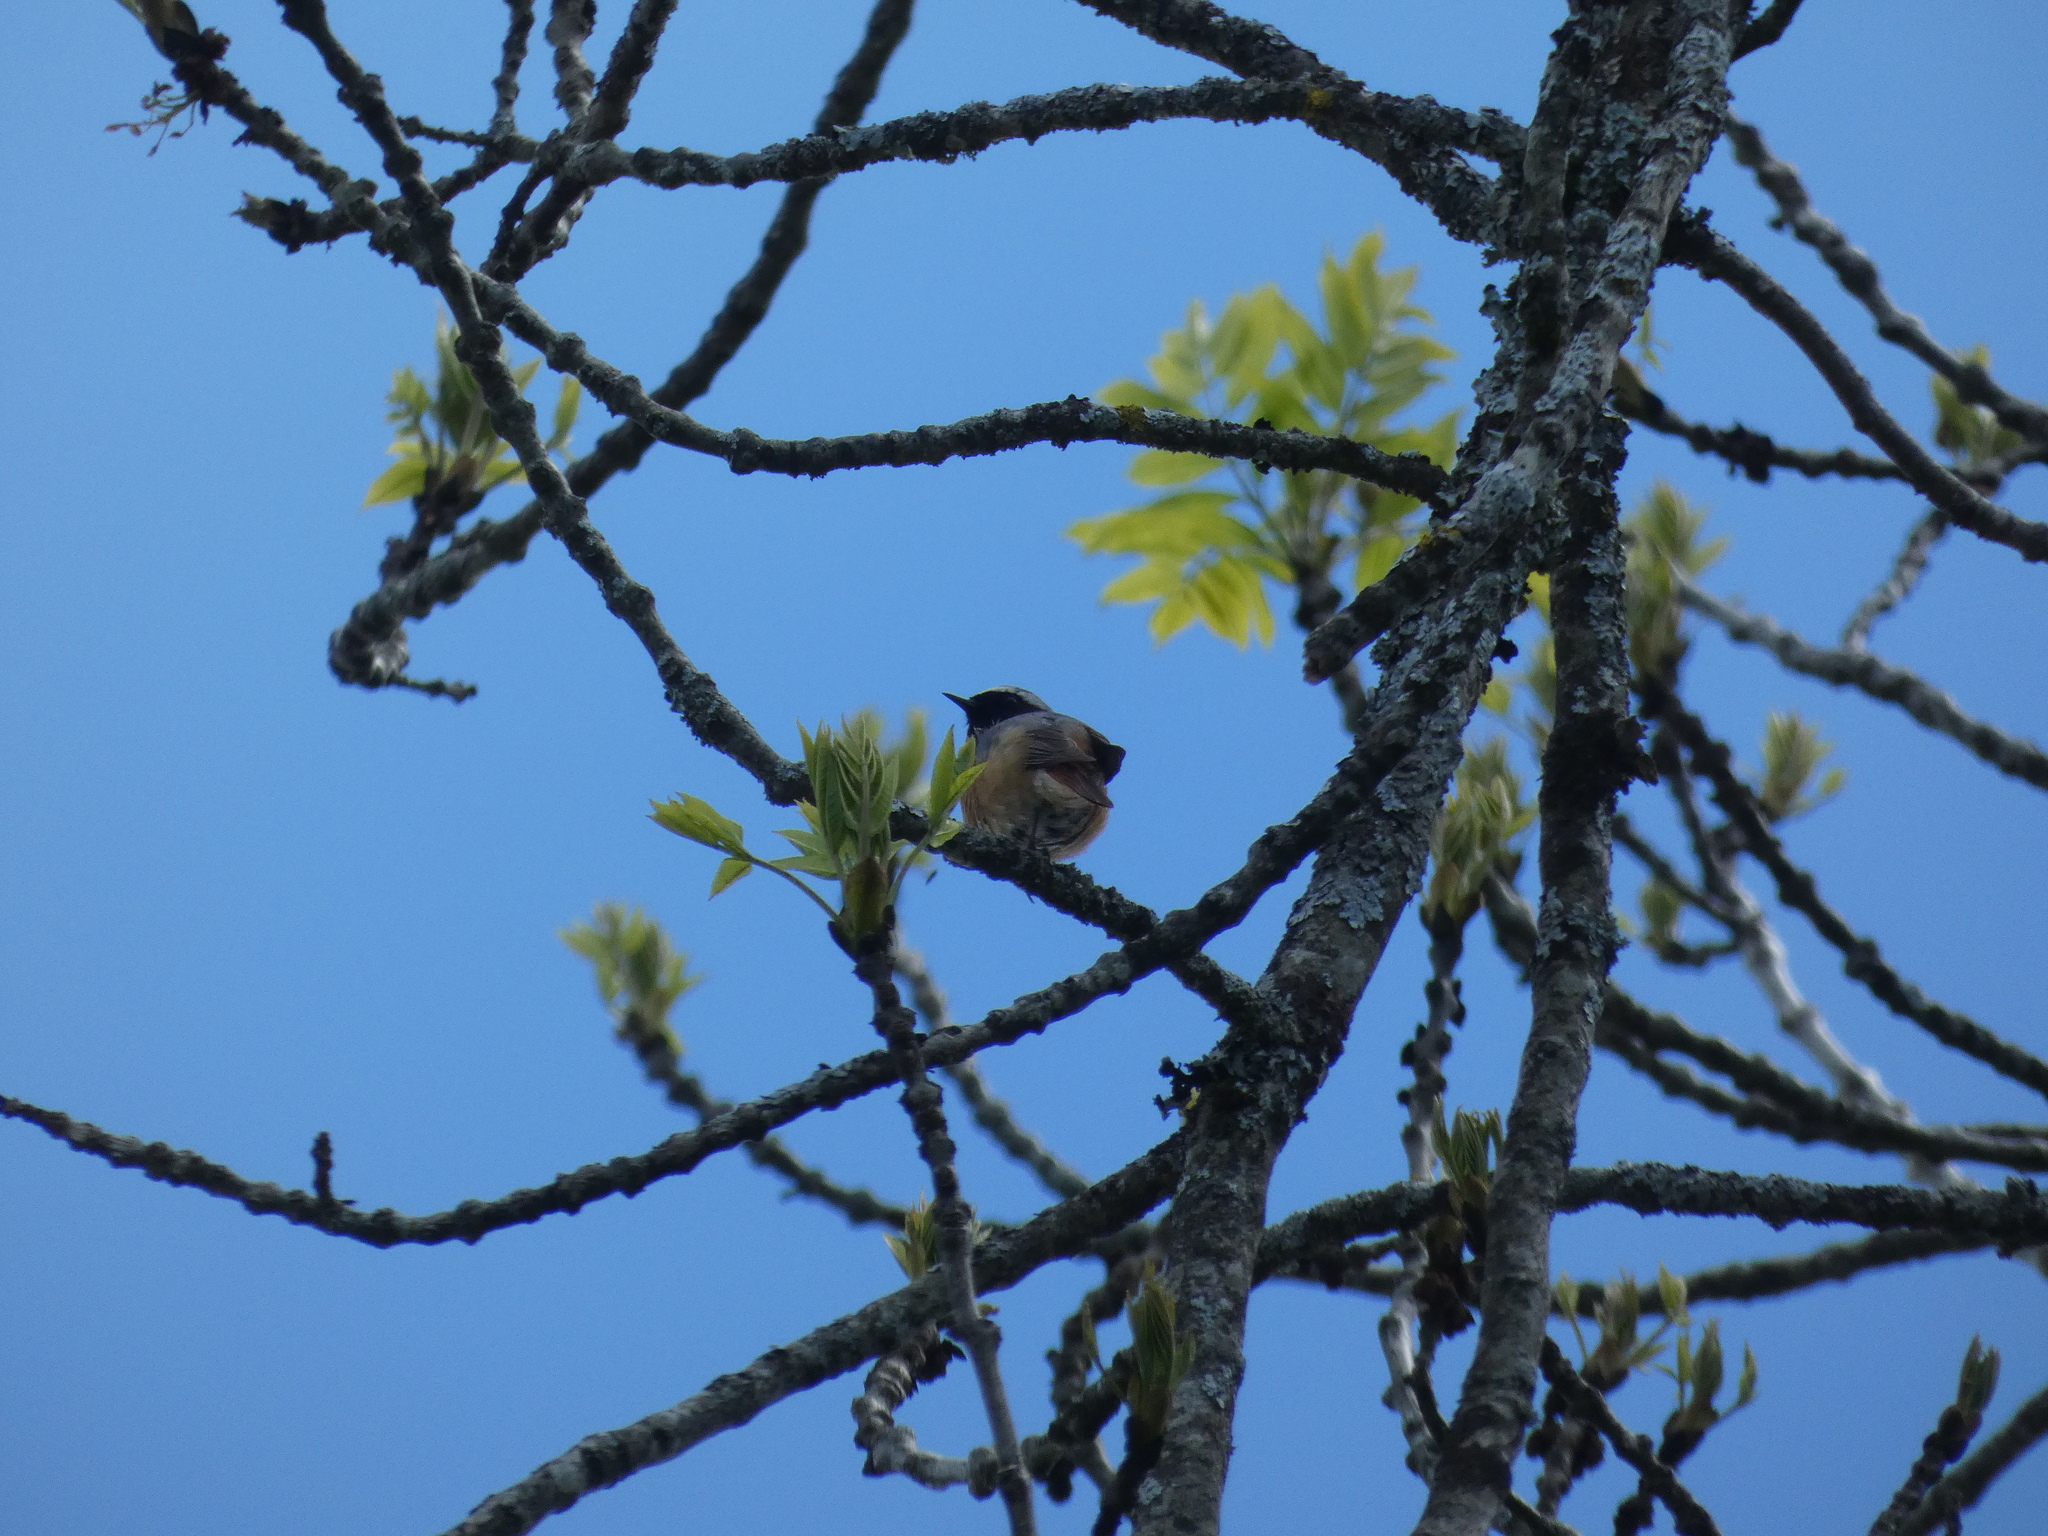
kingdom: Animalia
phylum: Chordata
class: Aves
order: Passeriformes
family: Muscicapidae
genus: Phoenicurus
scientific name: Phoenicurus phoenicurus
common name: Common redstart
